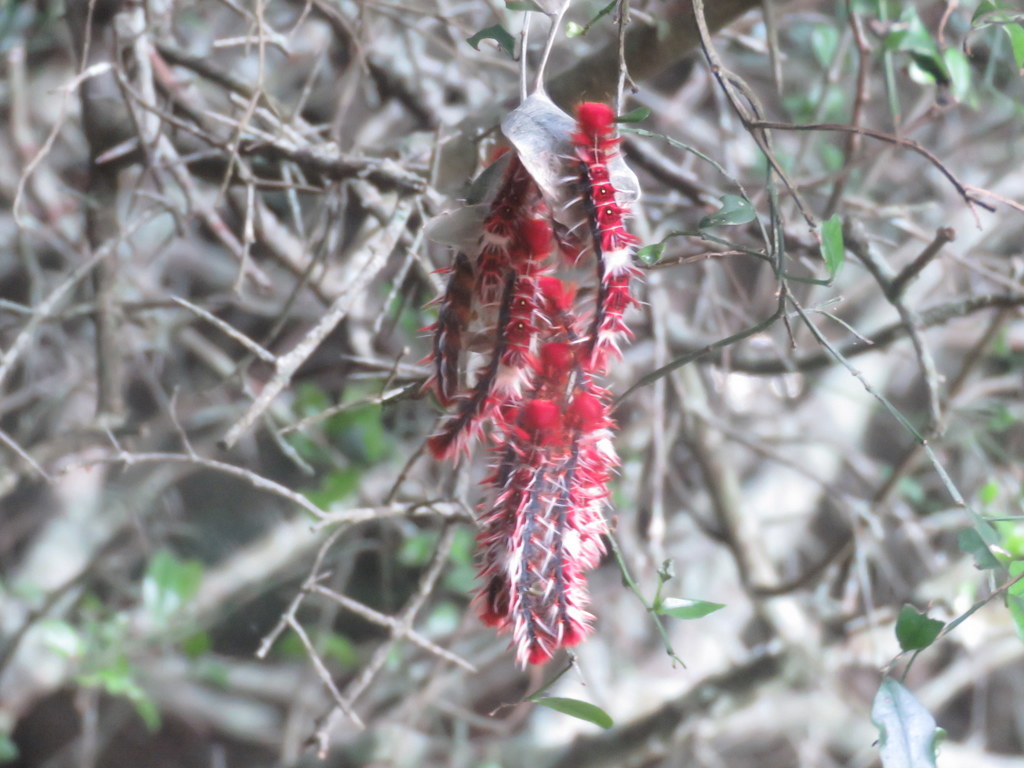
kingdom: Animalia
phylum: Arthropoda
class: Insecta
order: Lepidoptera
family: Nymphalidae
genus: Morpho
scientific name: Morpho epistrophus
